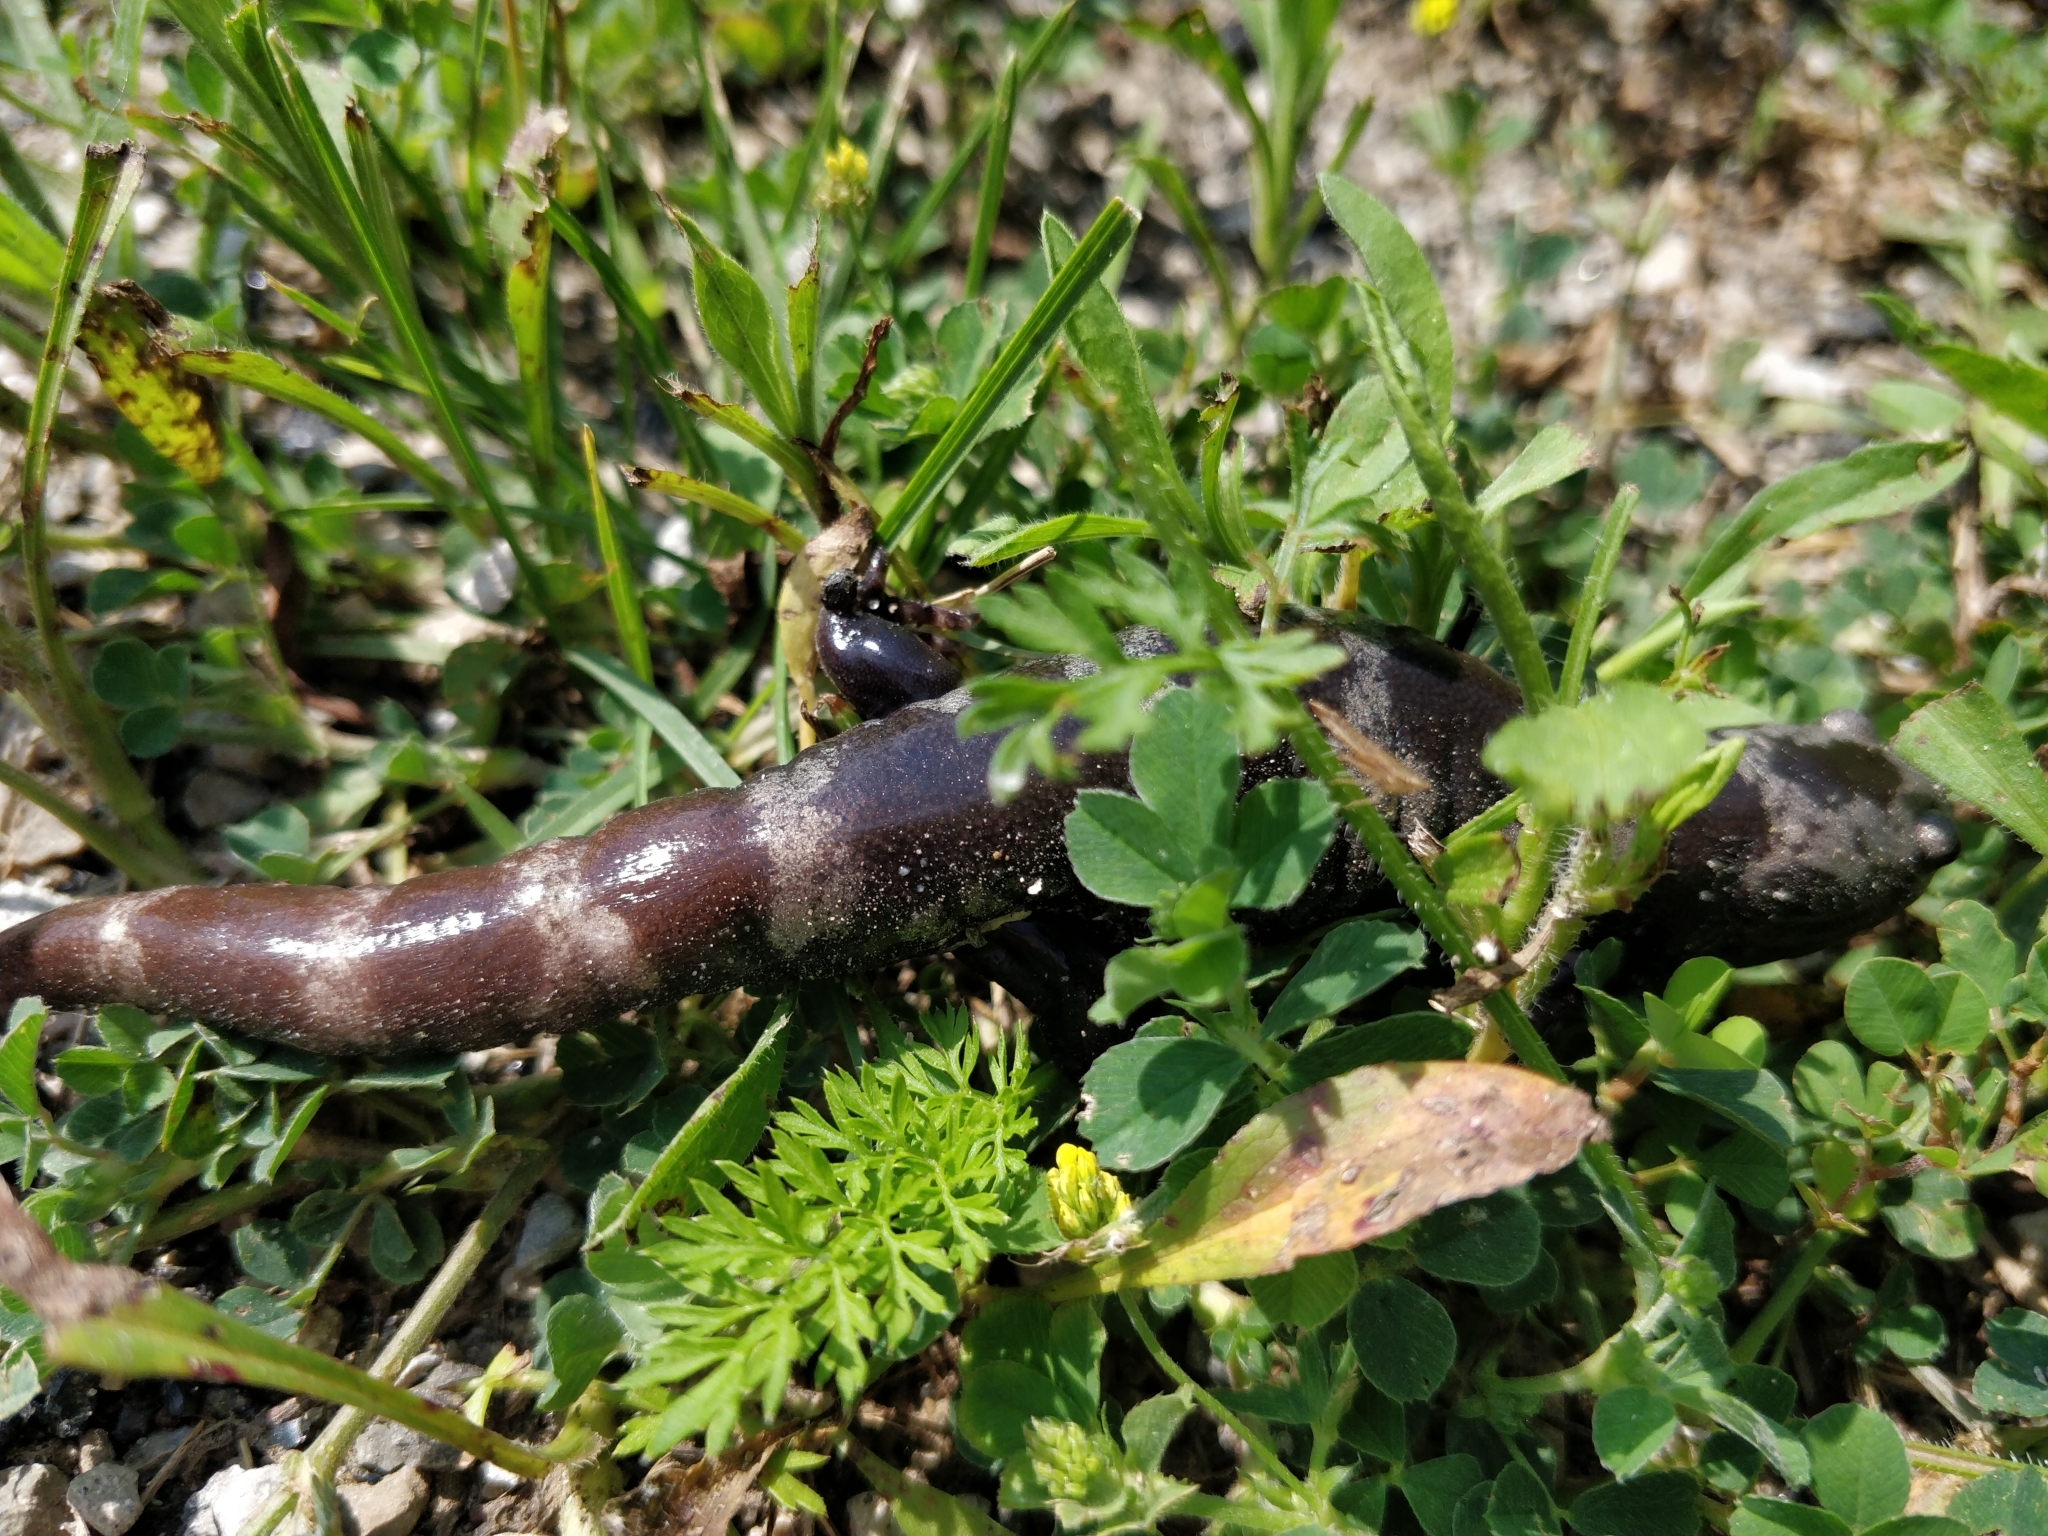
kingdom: Animalia
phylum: Chordata
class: Amphibia
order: Caudata
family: Ambystomatidae
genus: Ambystoma
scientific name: Ambystoma opacum
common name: Marbled salamander
